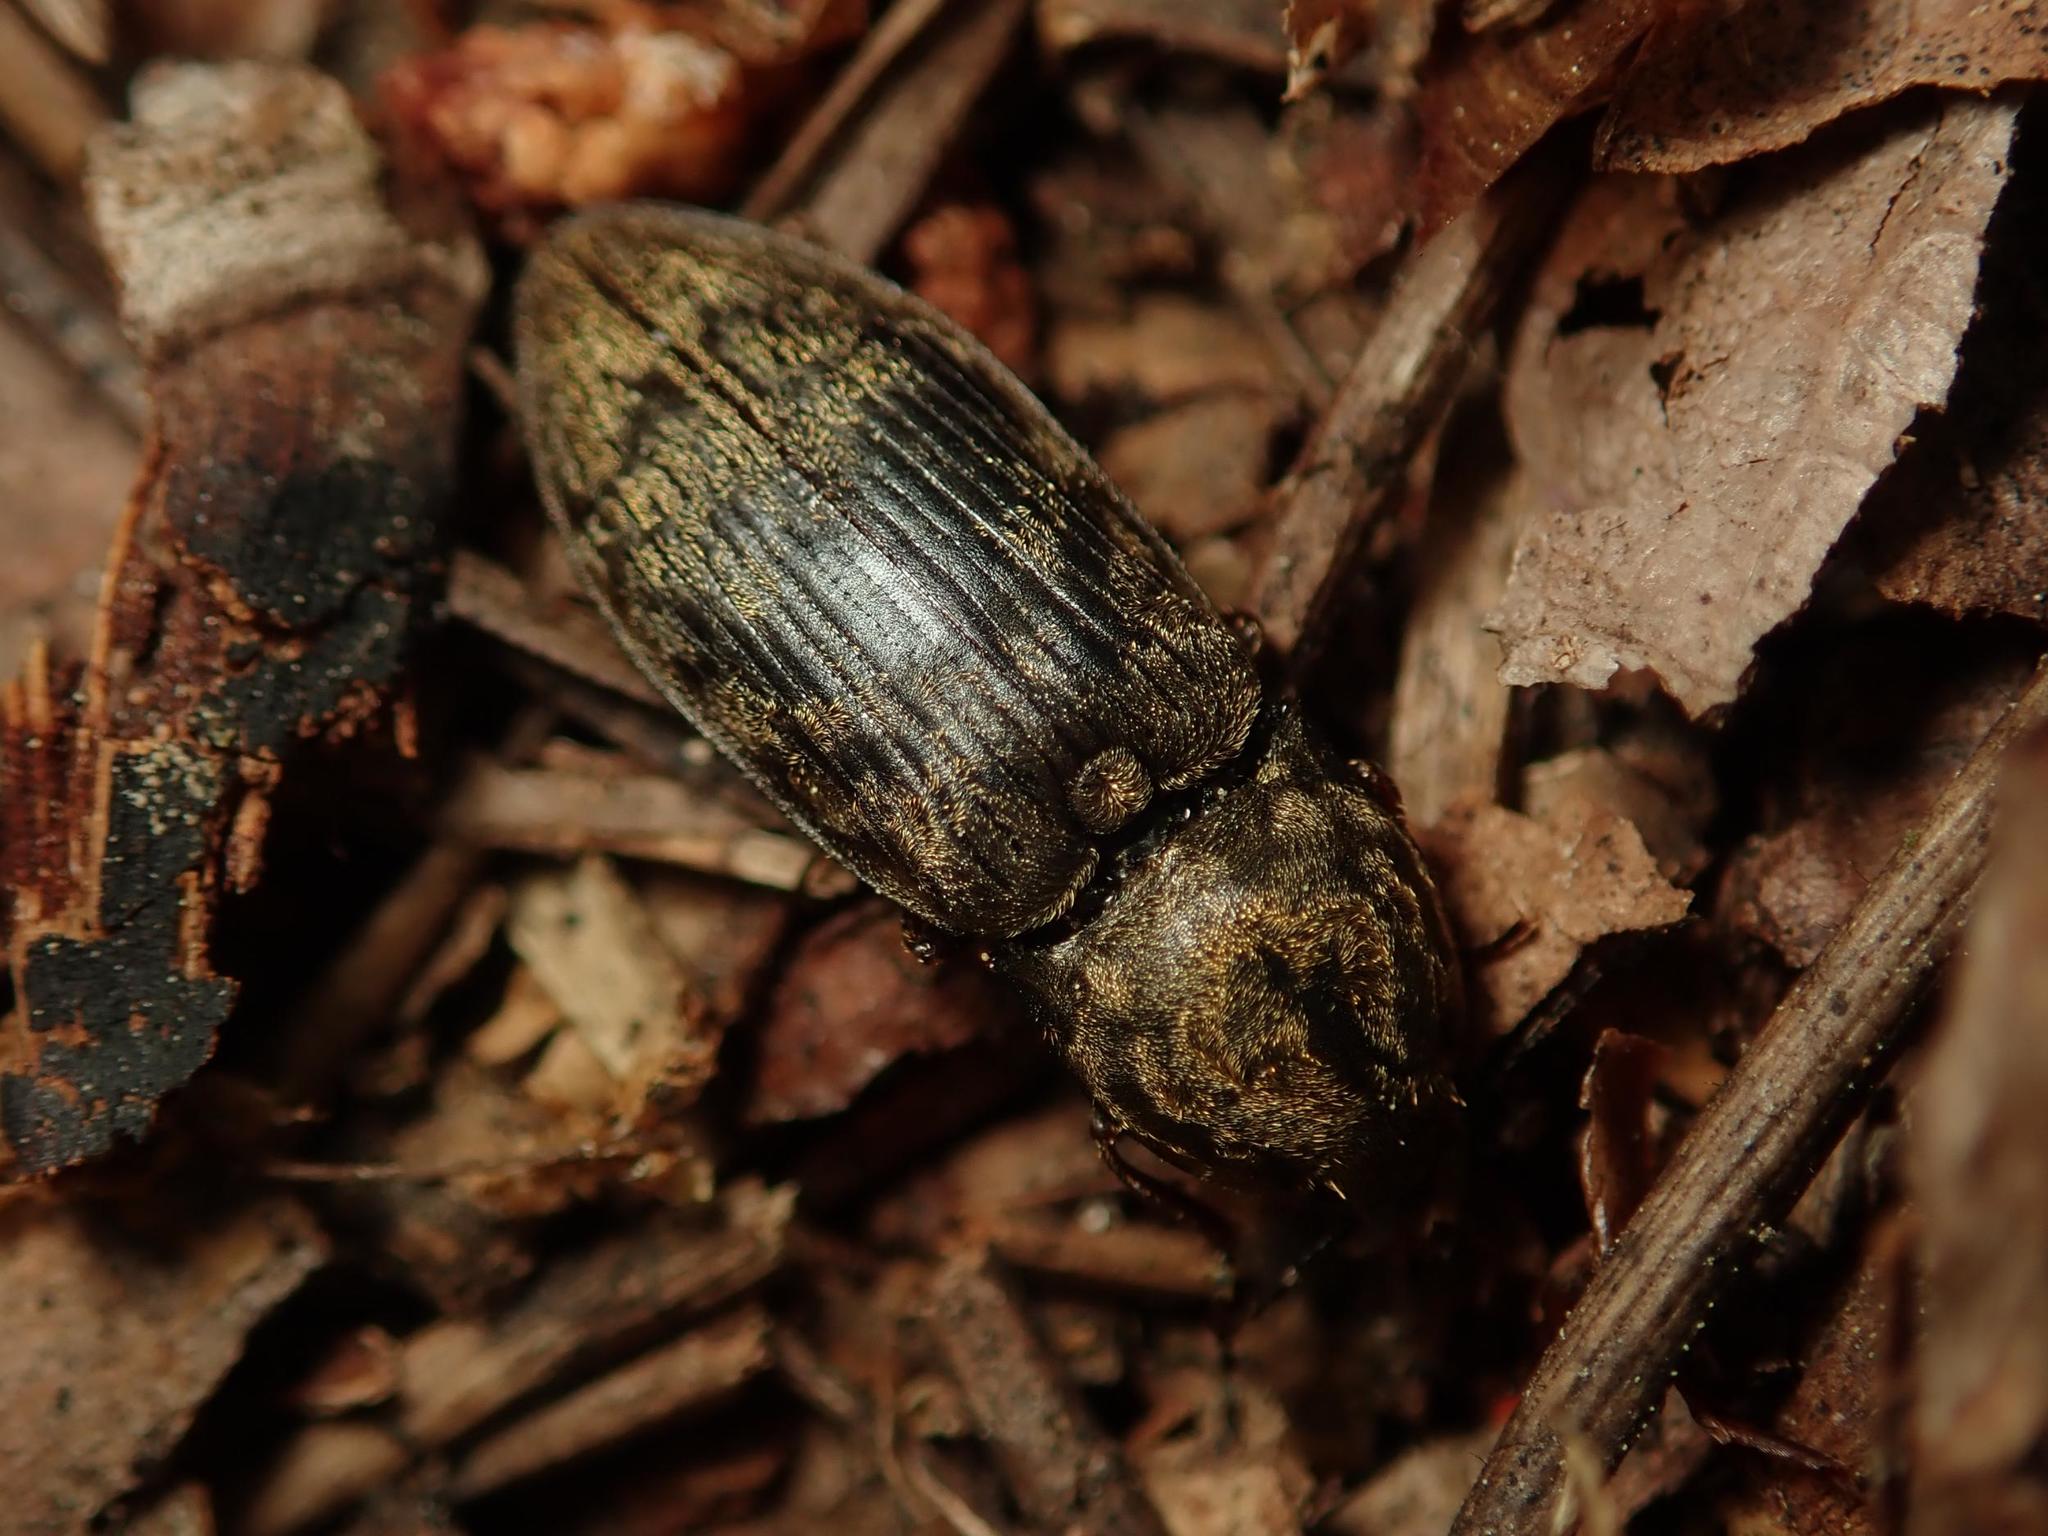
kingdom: Animalia
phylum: Arthropoda
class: Insecta
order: Coleoptera
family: Elateridae
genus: Prosternon
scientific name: Prosternon tessellatum
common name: Chequered click beetle
